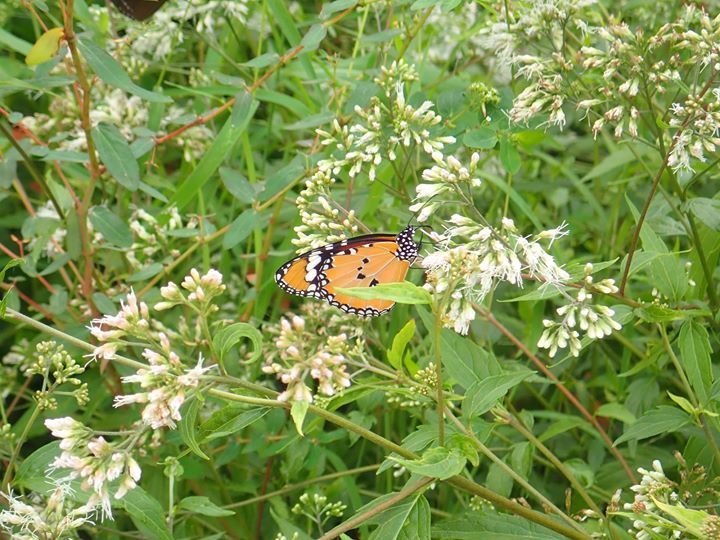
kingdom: Animalia
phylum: Arthropoda
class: Insecta
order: Lepidoptera
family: Nymphalidae
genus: Danaus
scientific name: Danaus chrysippus
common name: Plain tiger
